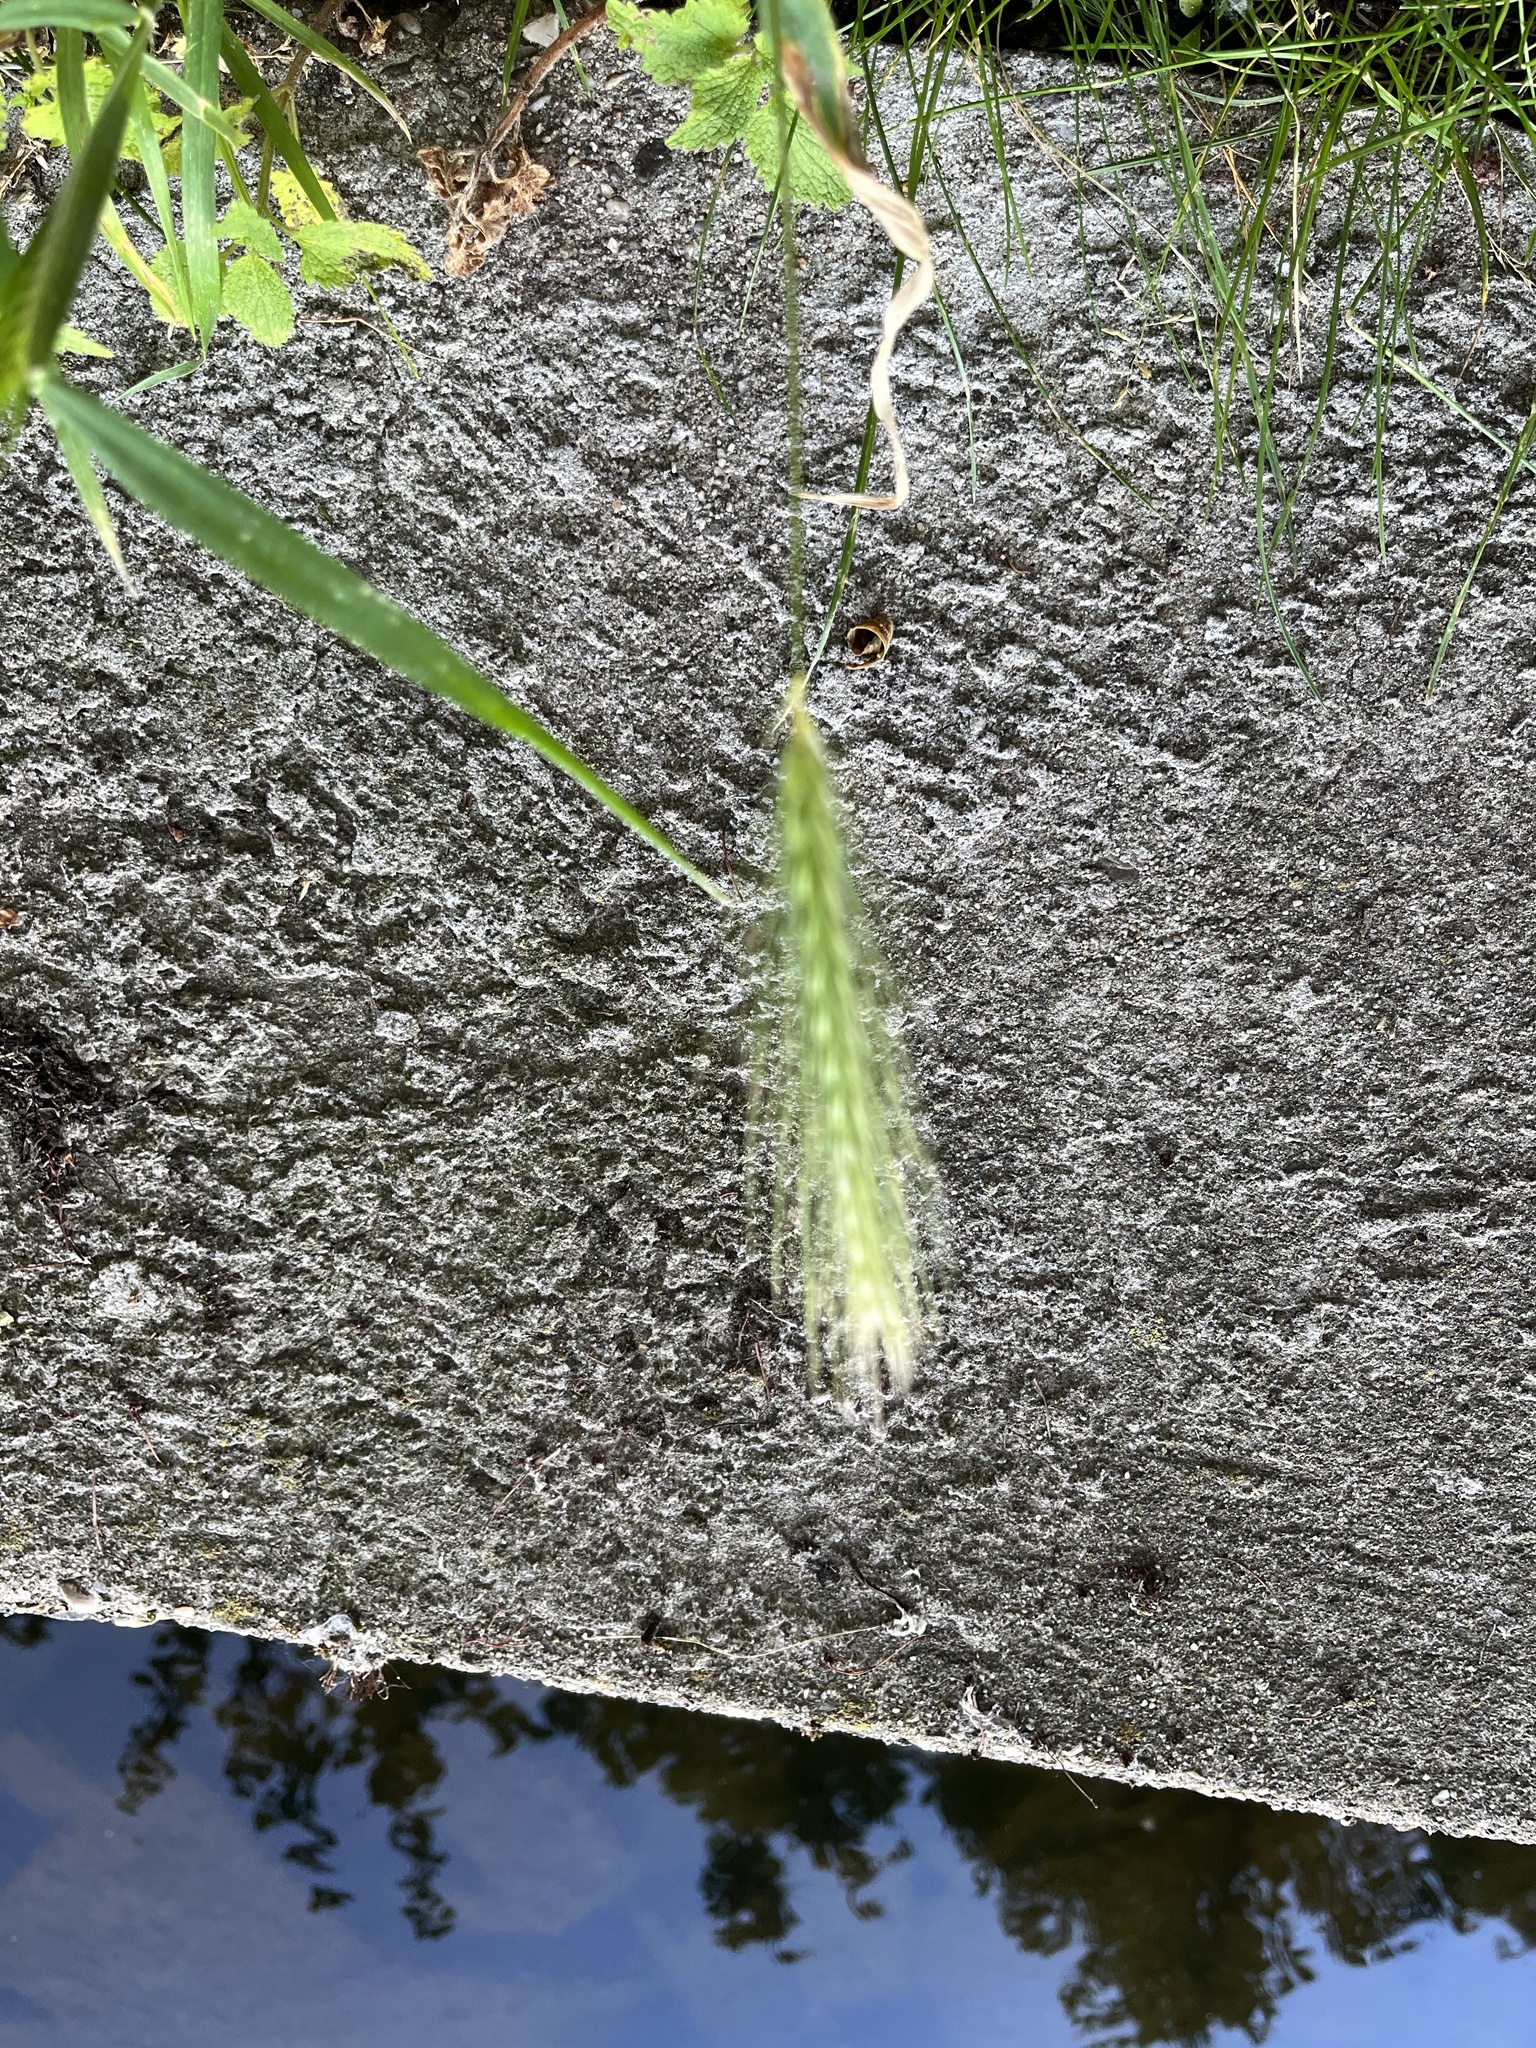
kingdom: Plantae
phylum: Tracheophyta
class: Liliopsida
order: Poales
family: Poaceae
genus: Hordeum
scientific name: Hordeum murinum
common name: Wall barley
